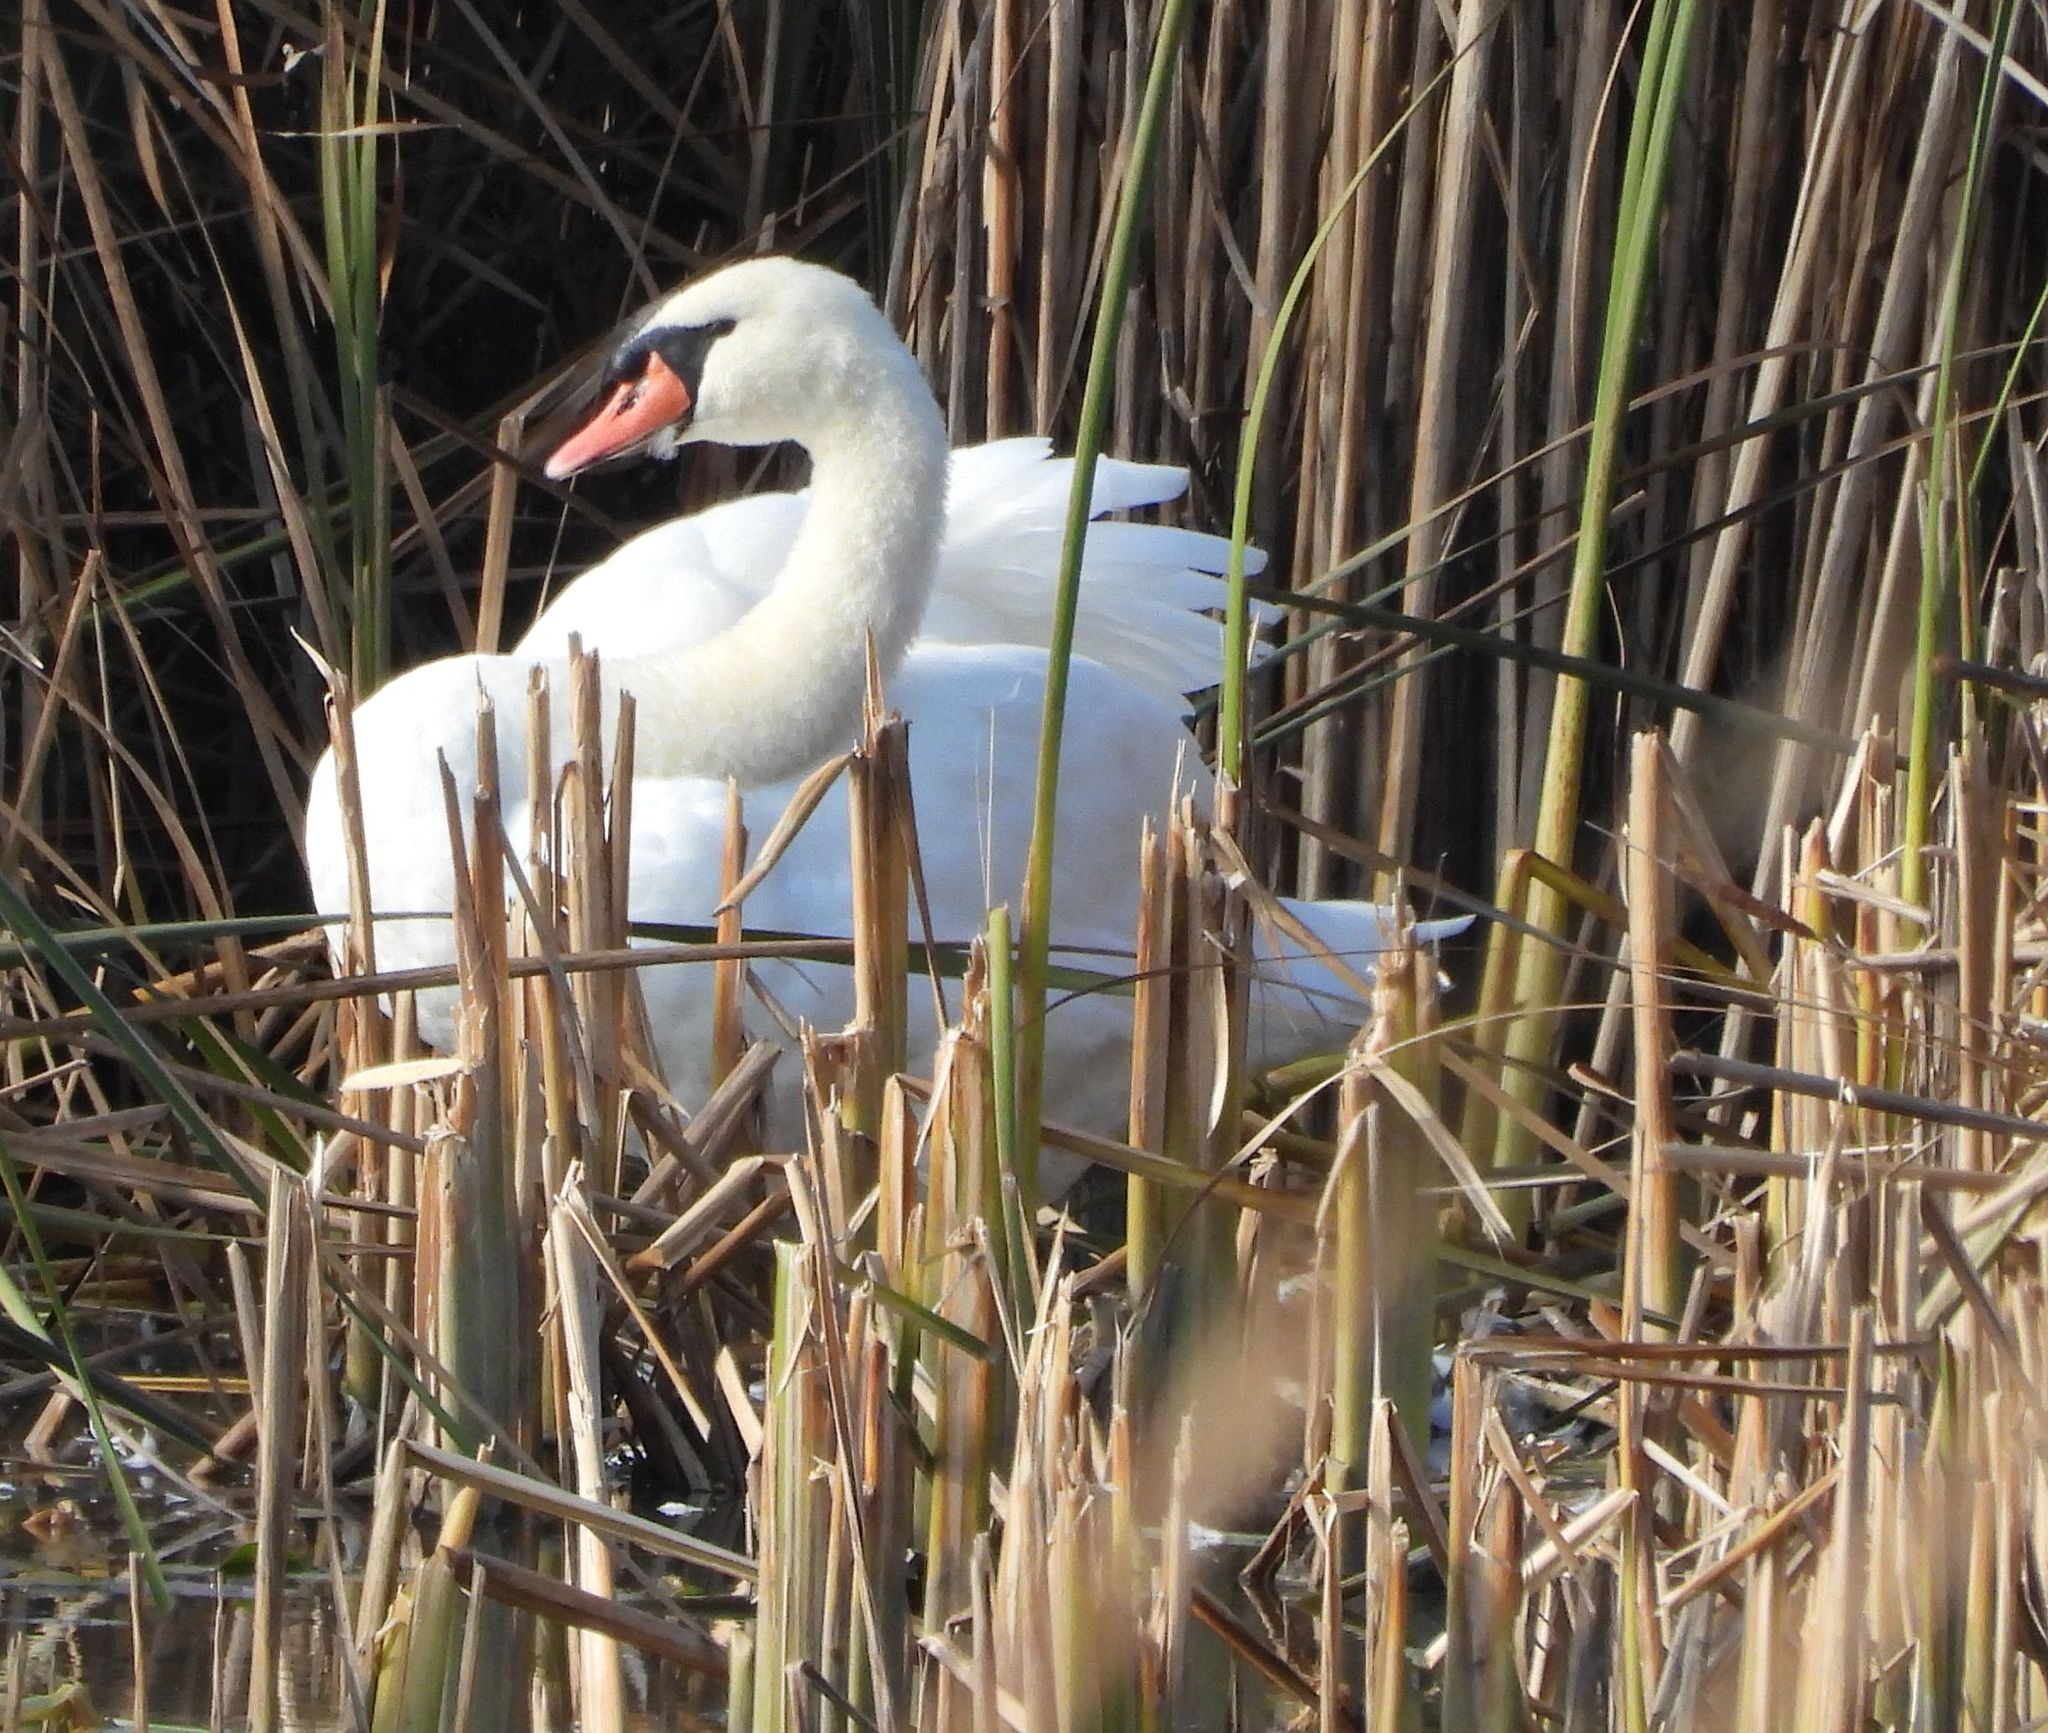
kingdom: Animalia
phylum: Chordata
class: Aves
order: Anseriformes
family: Anatidae
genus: Cygnus
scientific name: Cygnus olor
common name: Mute swan
